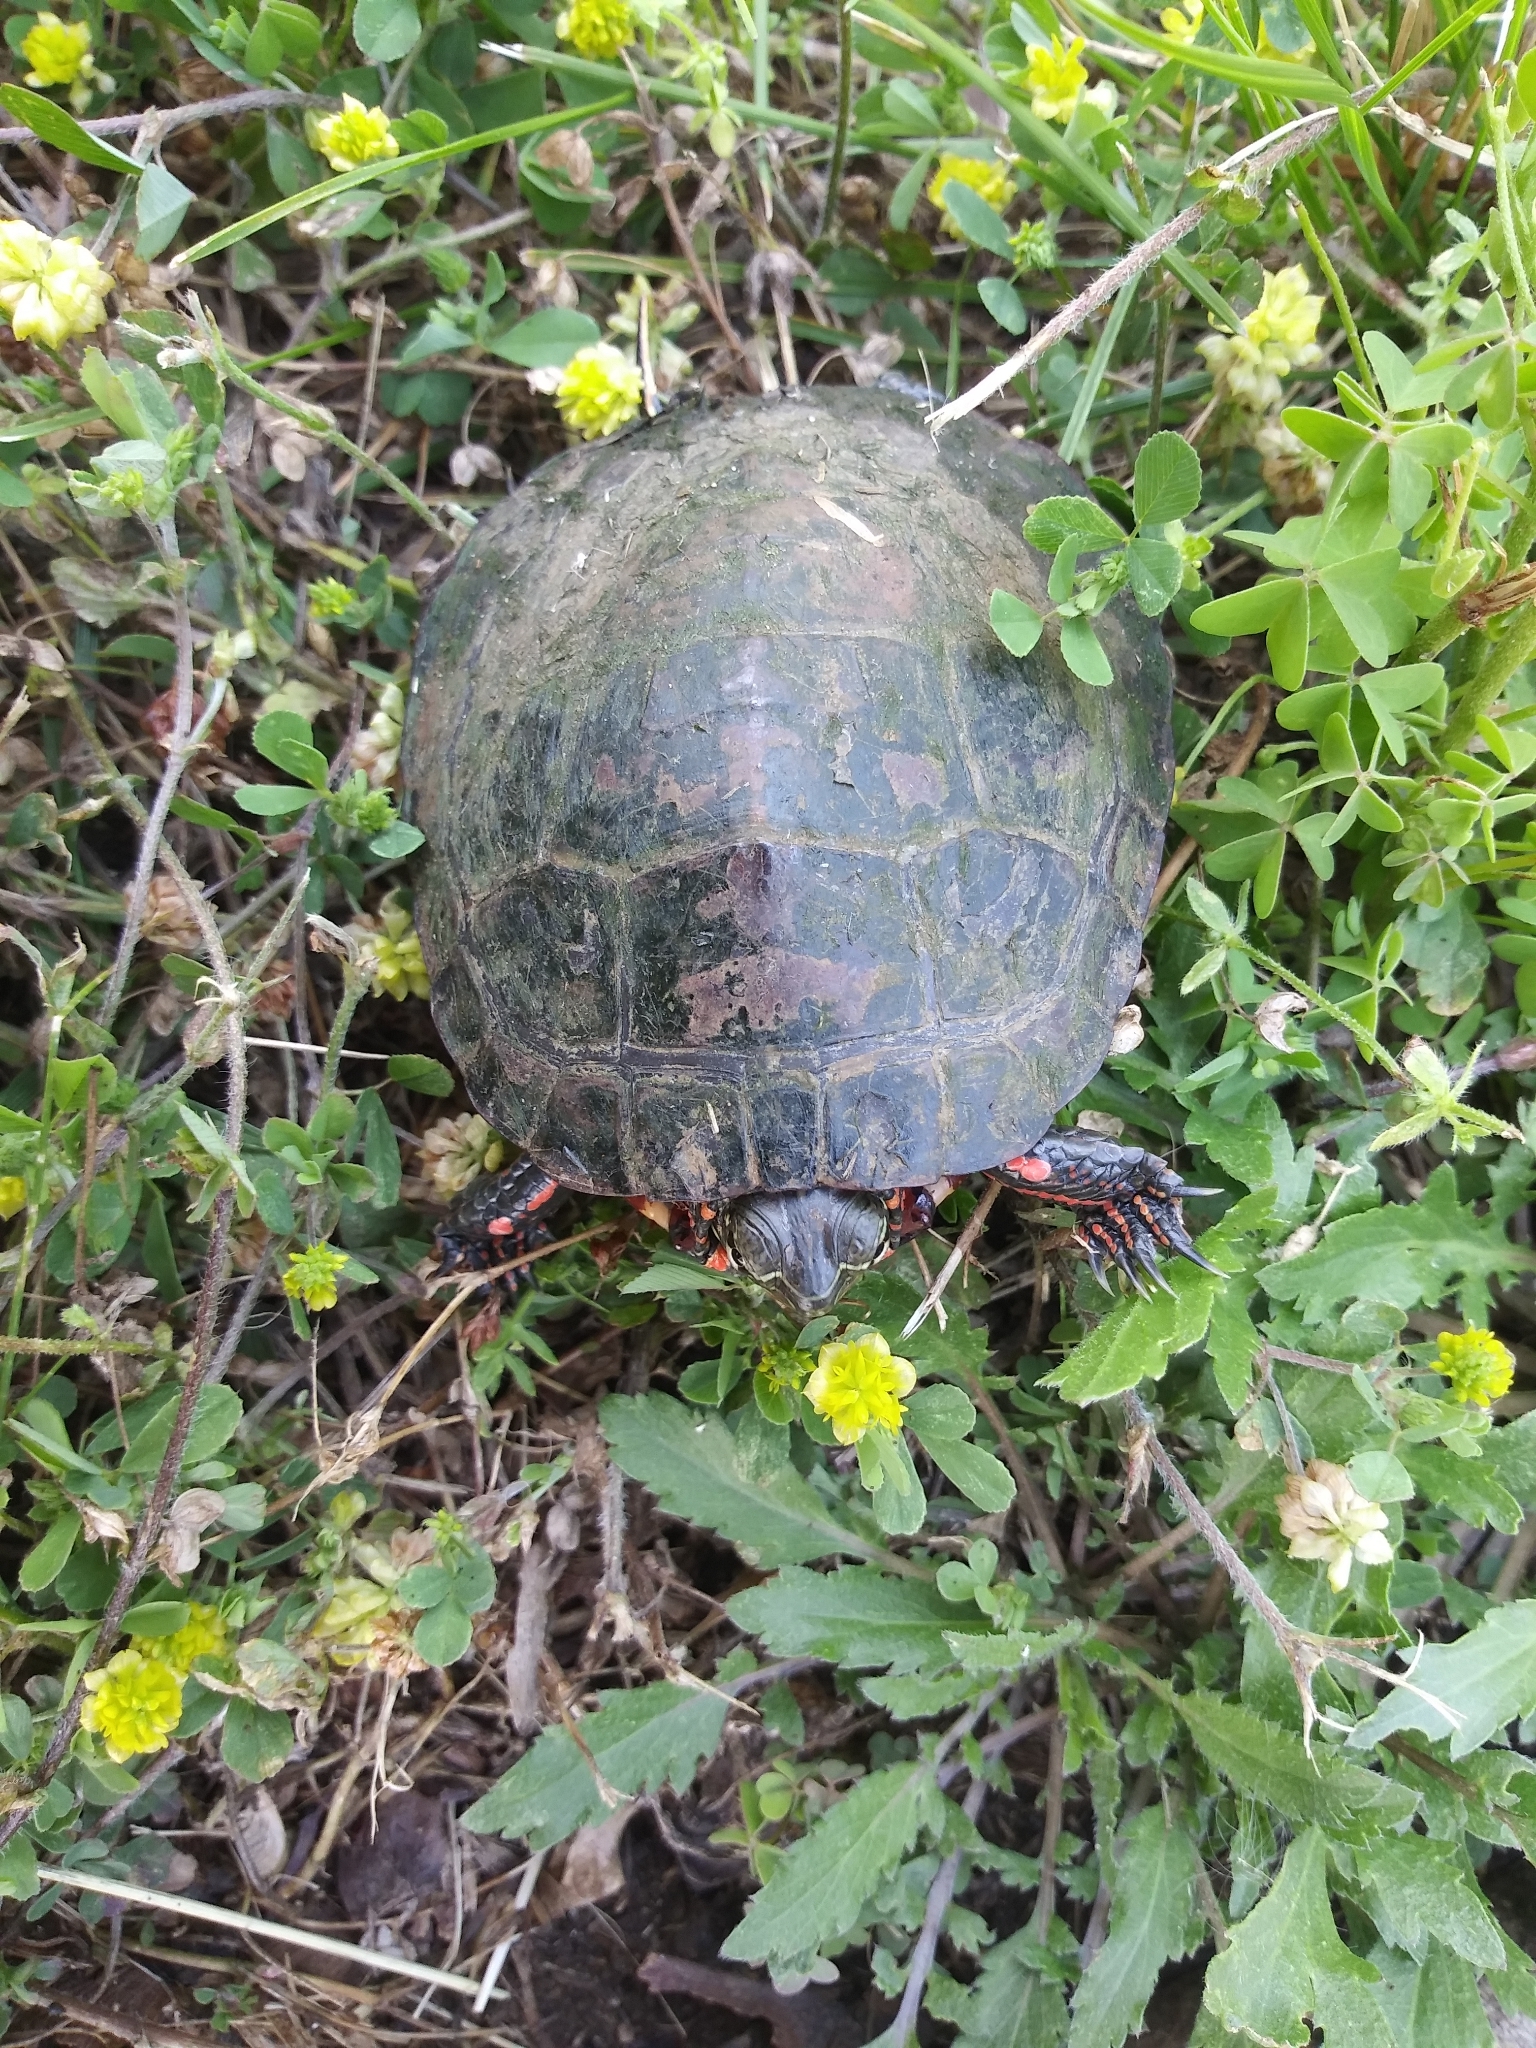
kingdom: Animalia
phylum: Chordata
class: Testudines
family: Emydidae
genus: Chrysemys
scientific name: Chrysemys picta
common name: Painted turtle
